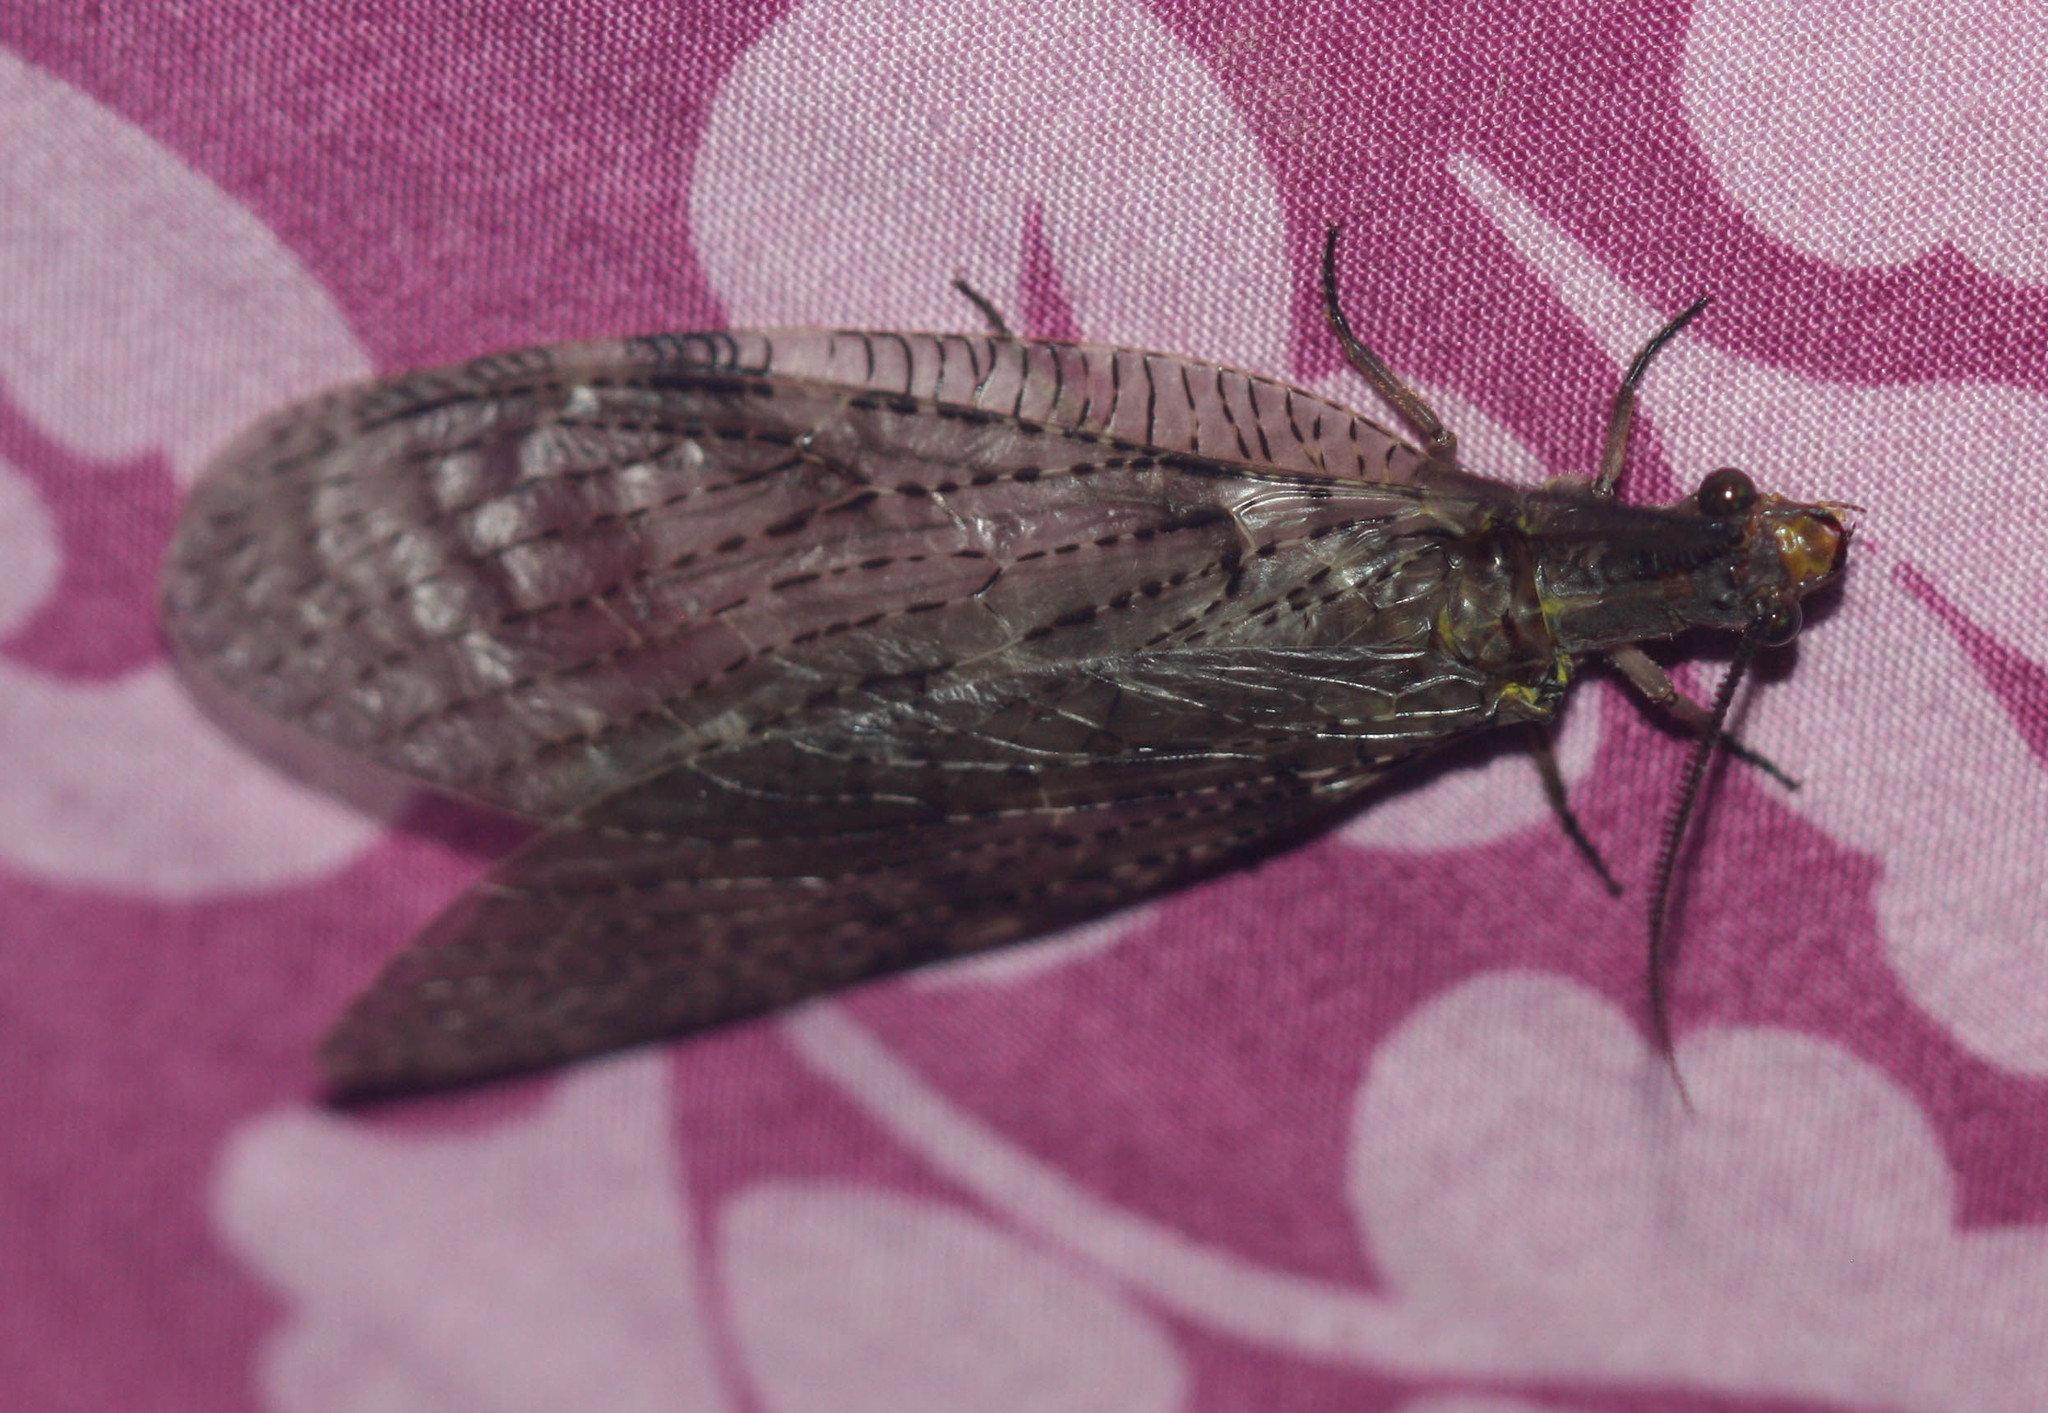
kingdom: Animalia
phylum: Arthropoda
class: Insecta
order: Megaloptera
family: Corydalidae
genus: Chauliodes
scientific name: Chauliodes pectinicornis
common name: Summer fishfly
